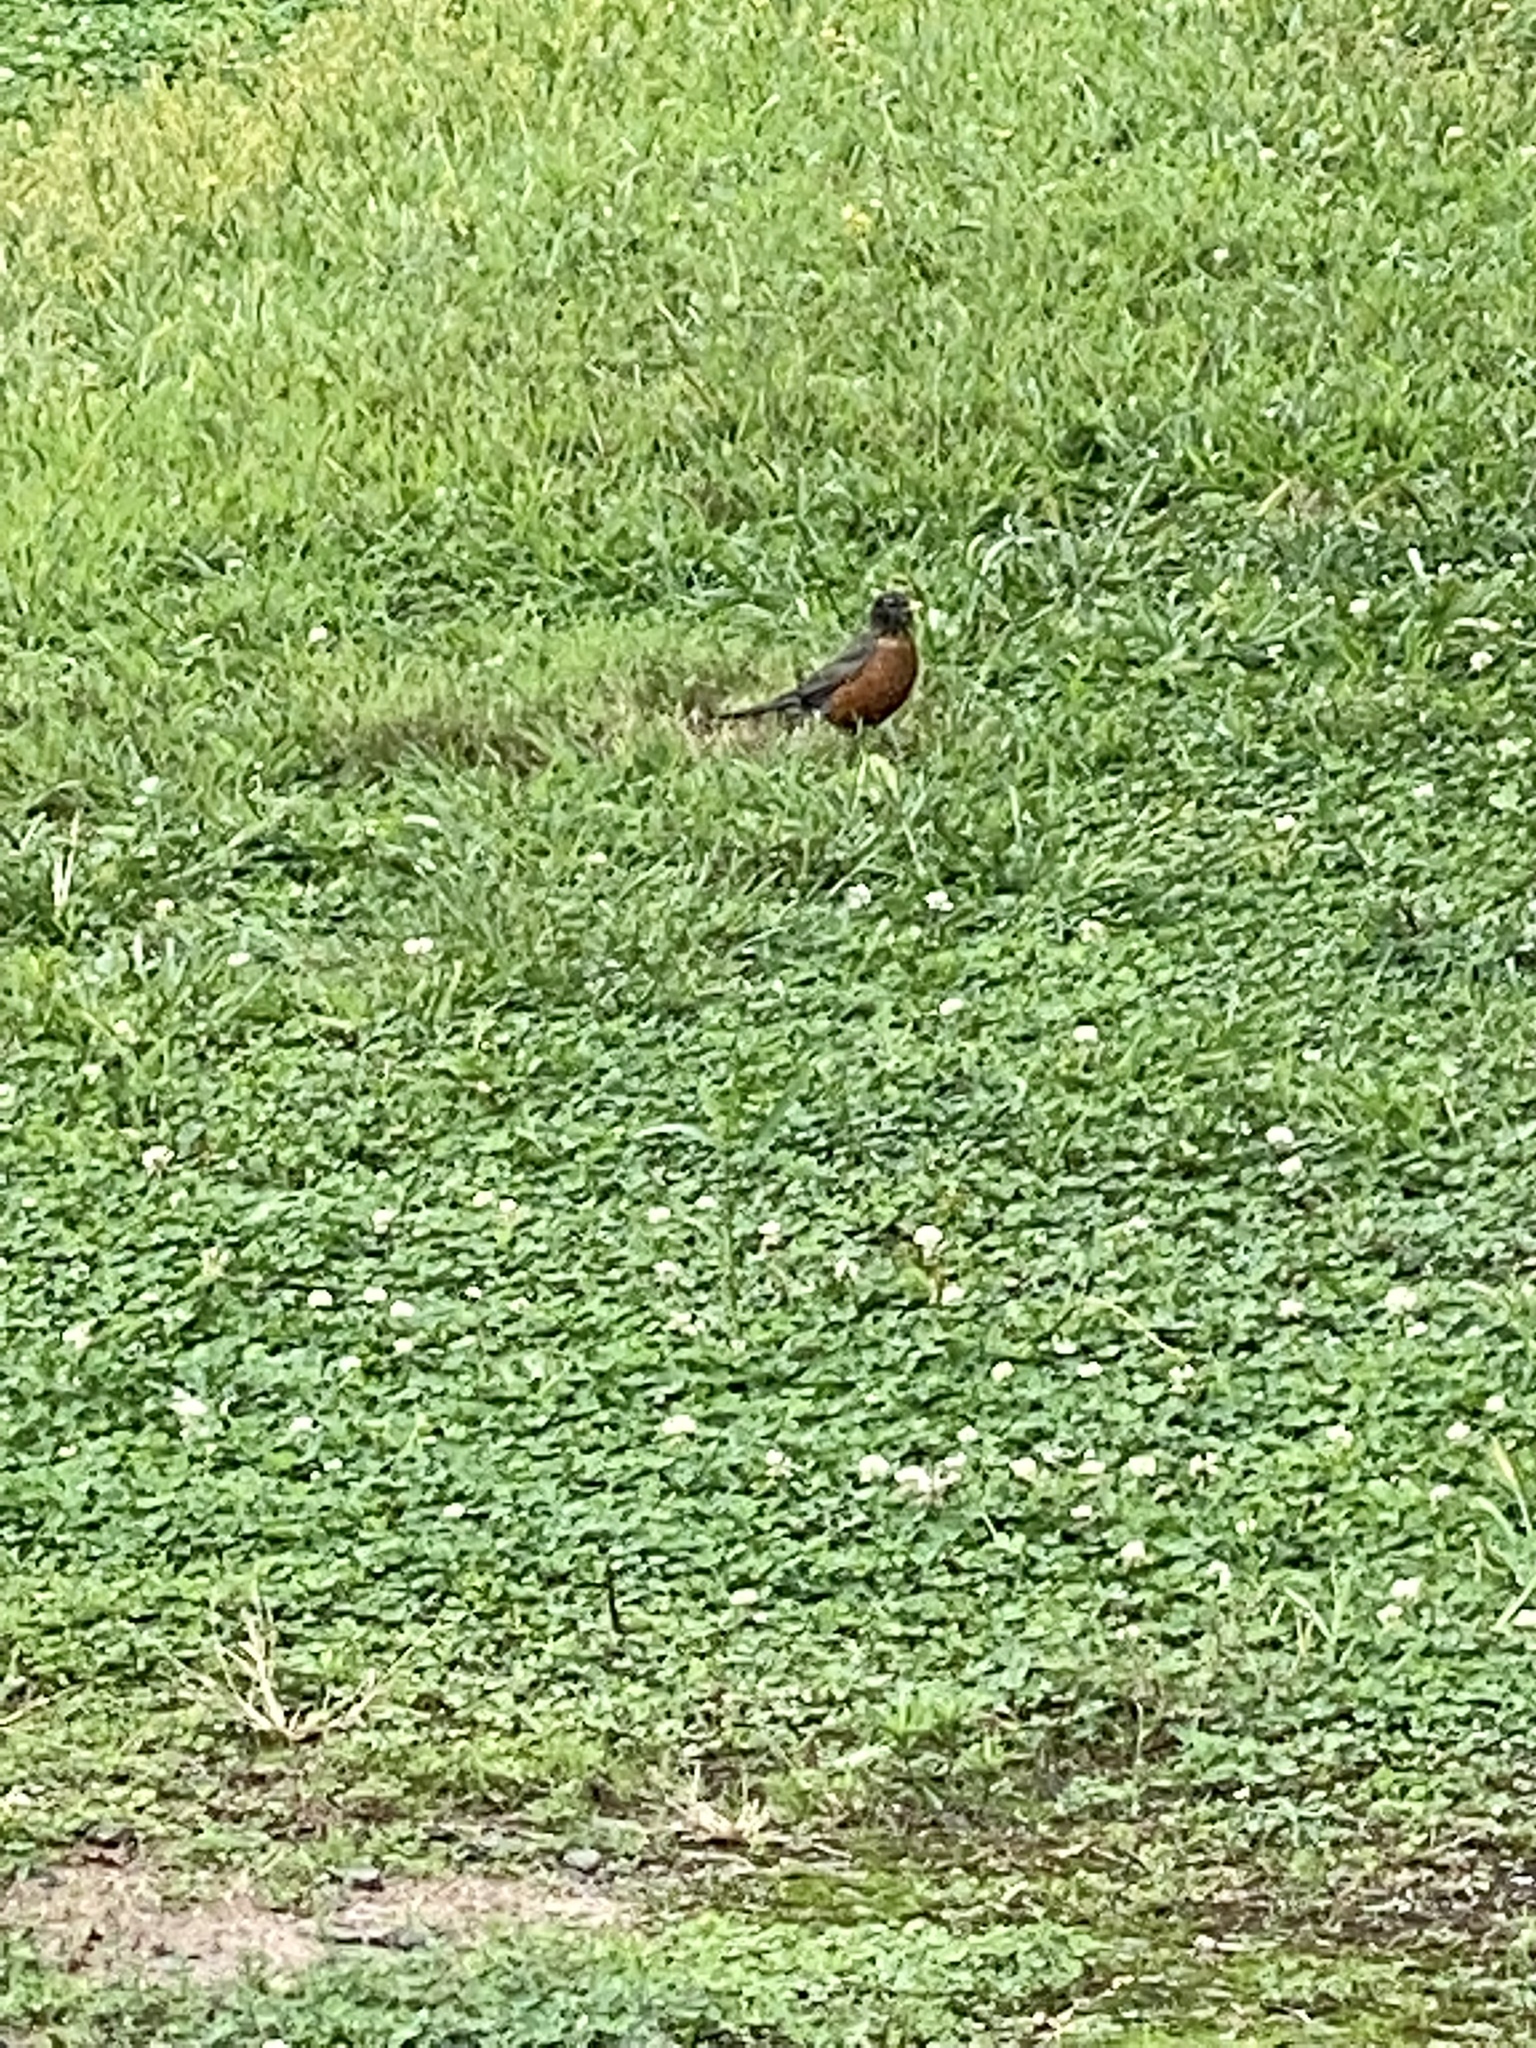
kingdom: Animalia
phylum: Chordata
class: Aves
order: Passeriformes
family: Turdidae
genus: Turdus
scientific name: Turdus migratorius
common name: American robin
